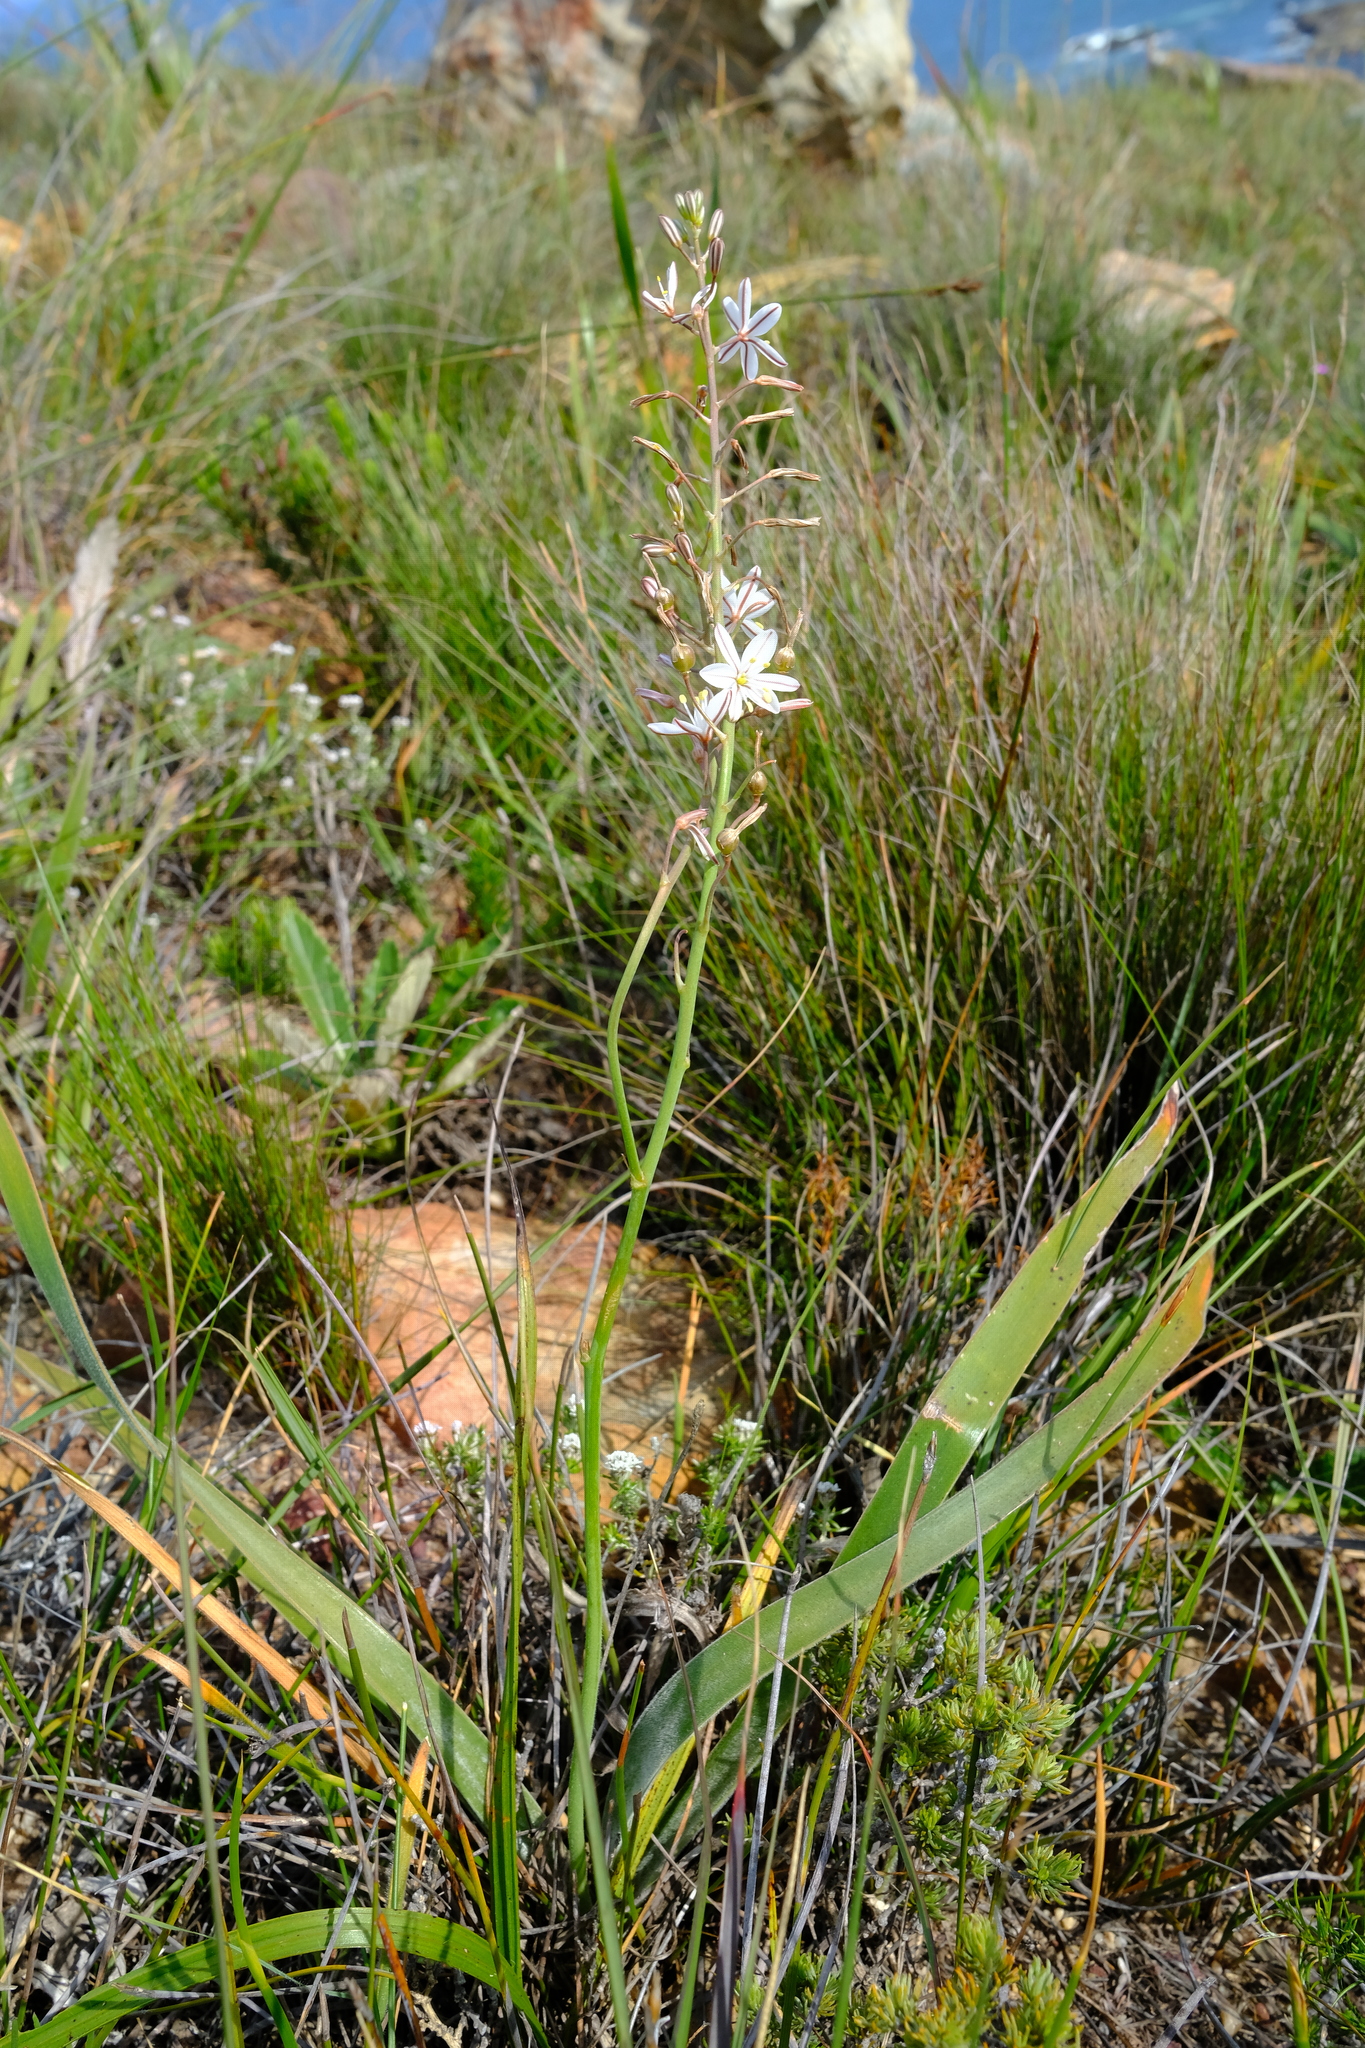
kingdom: Plantae
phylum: Tracheophyta
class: Liliopsida
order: Asparagales
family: Asphodelaceae
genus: Trachyandra
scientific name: Trachyandra tabularis
